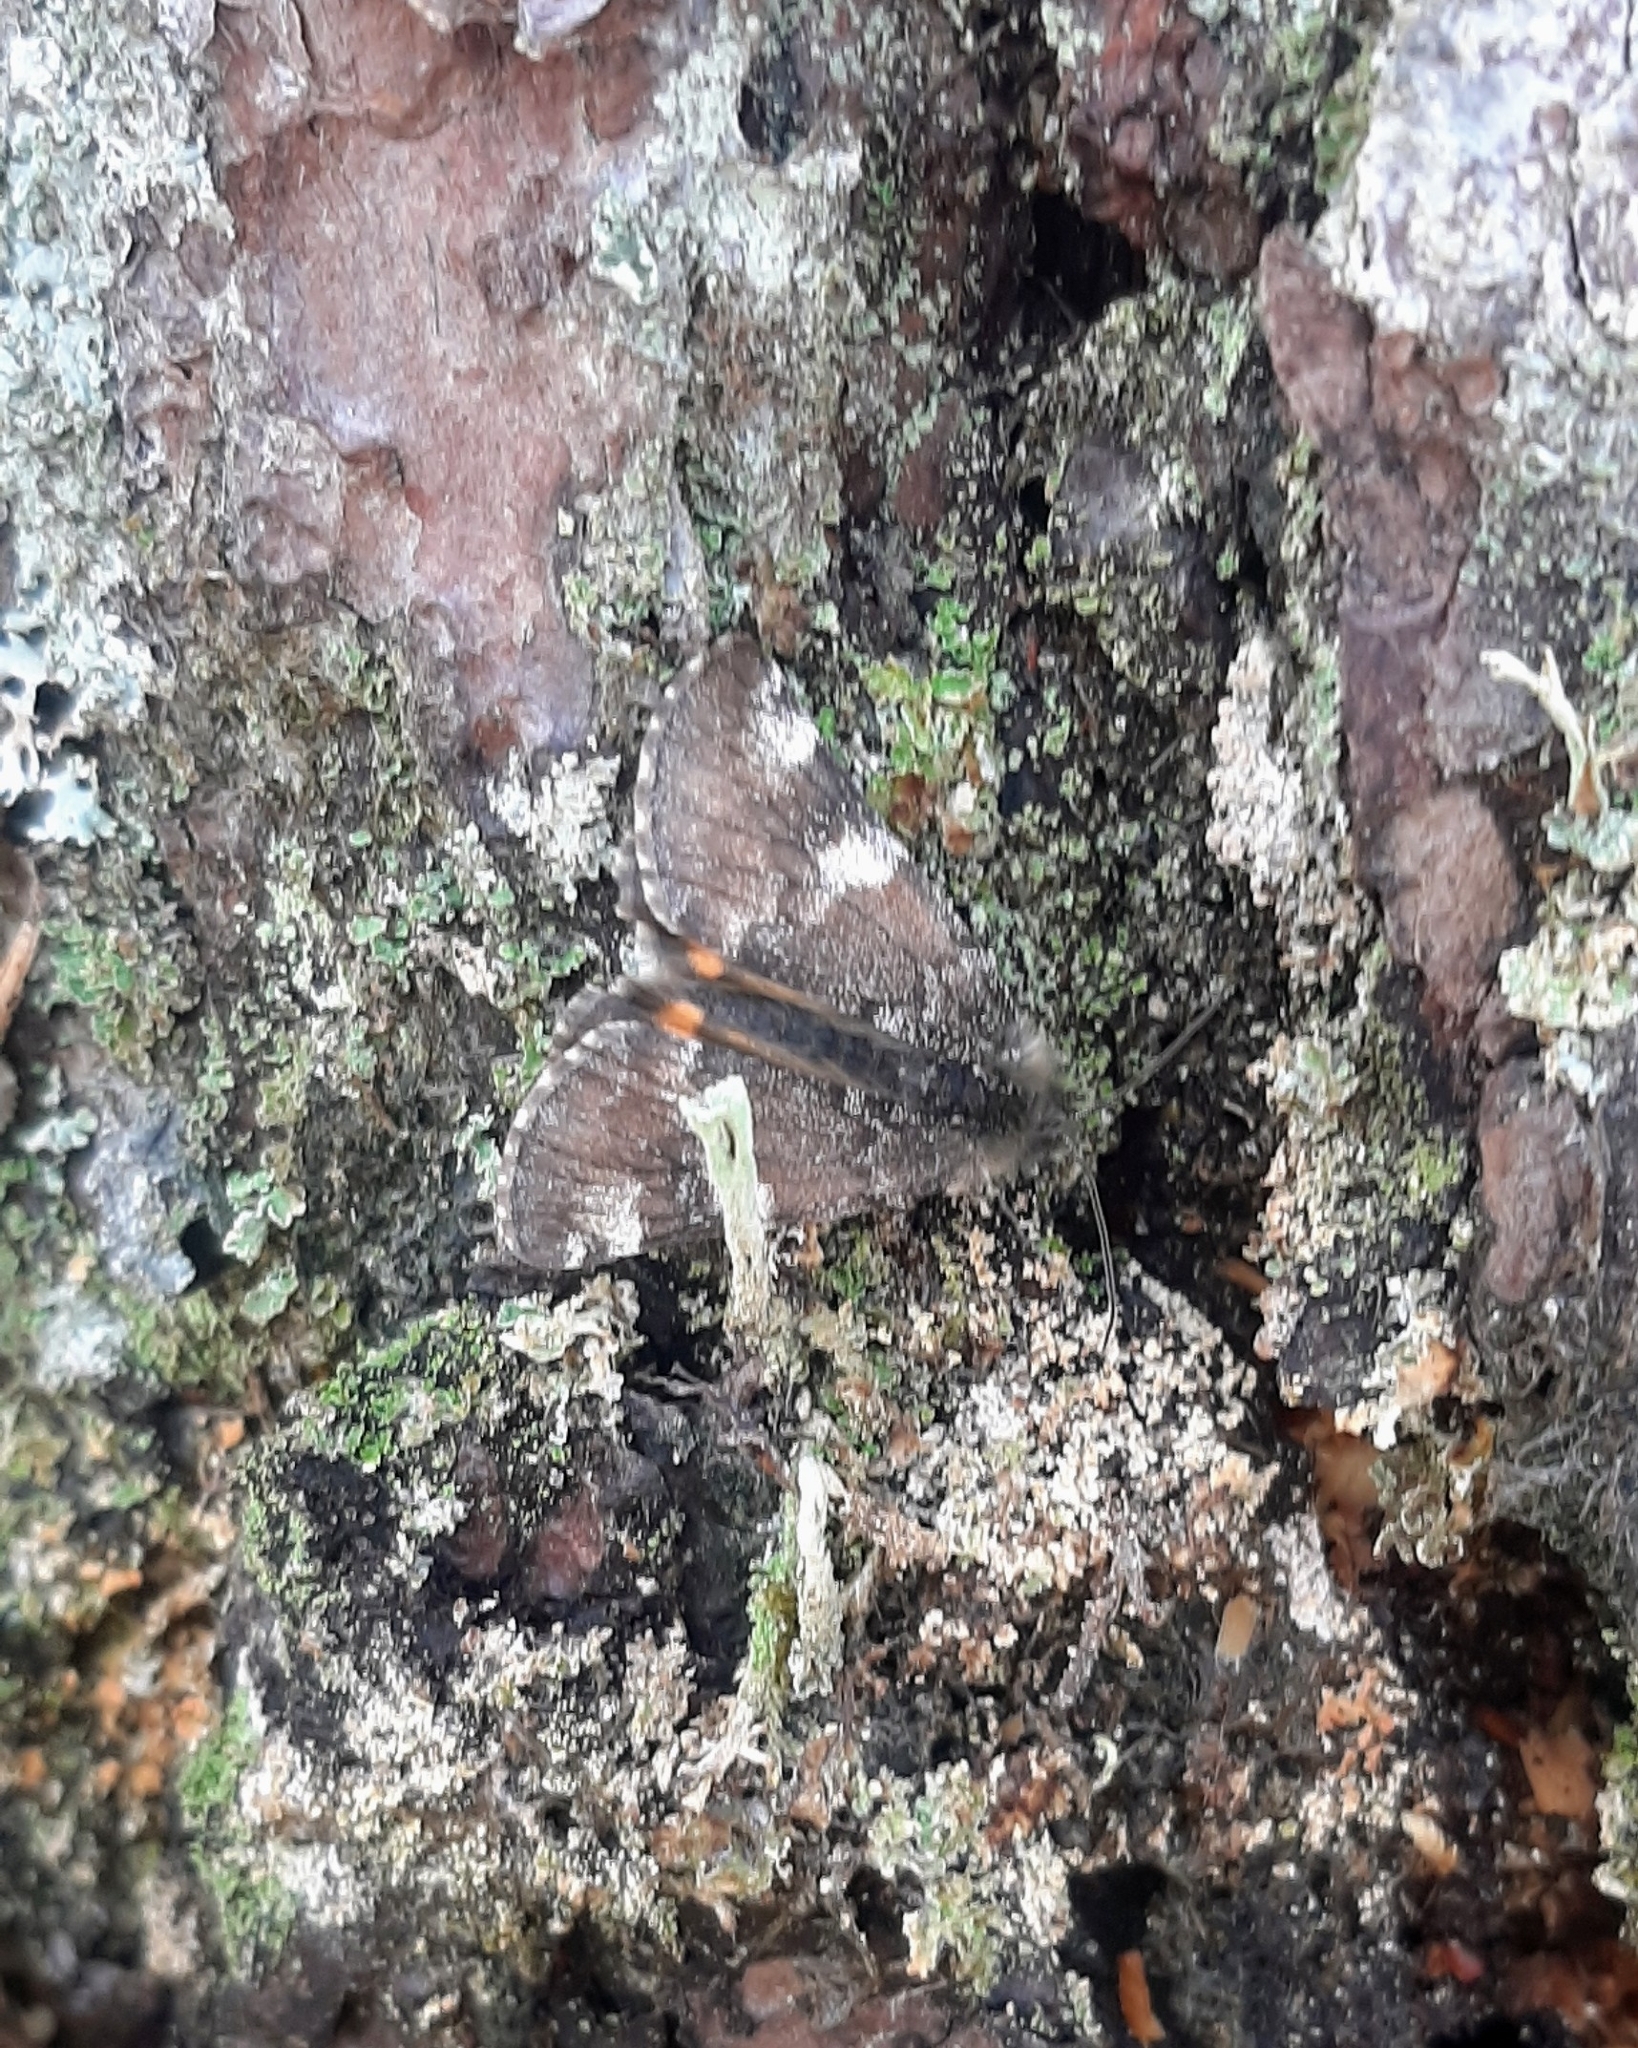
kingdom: Animalia
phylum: Arthropoda
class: Insecta
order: Lepidoptera
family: Geometridae
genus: Archiearis
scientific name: Archiearis parthenias
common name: Orange underwing
